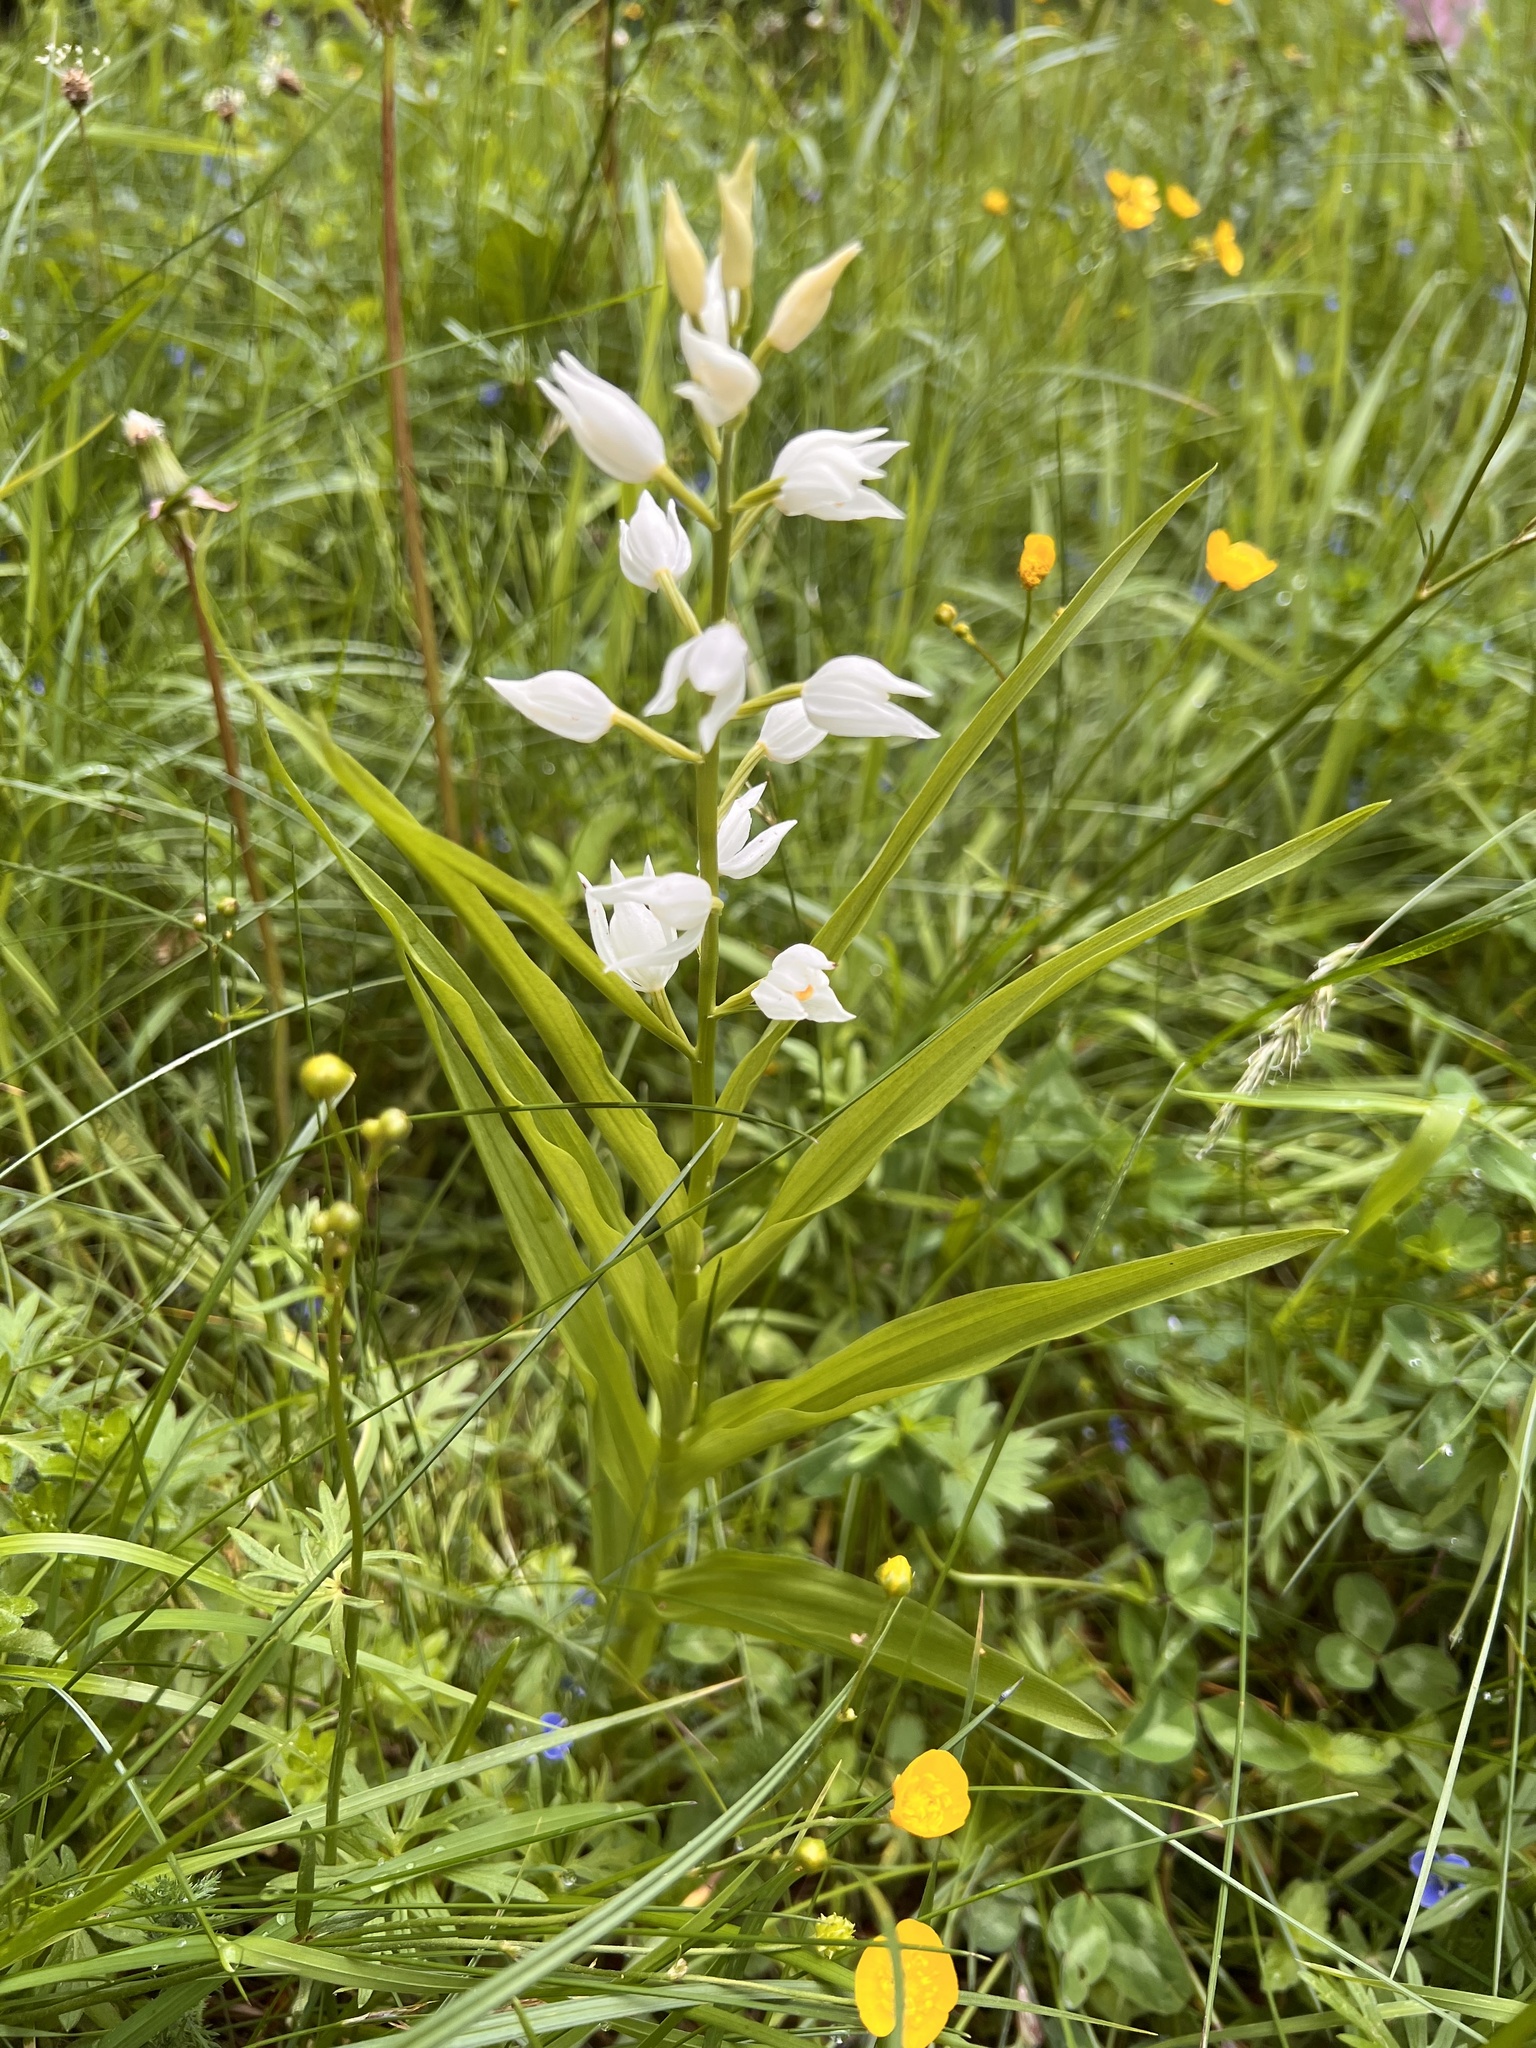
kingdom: Plantae
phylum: Tracheophyta
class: Liliopsida
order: Asparagales
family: Orchidaceae
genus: Cephalanthera
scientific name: Cephalanthera longifolia
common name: Narrow-leaved helleborine
